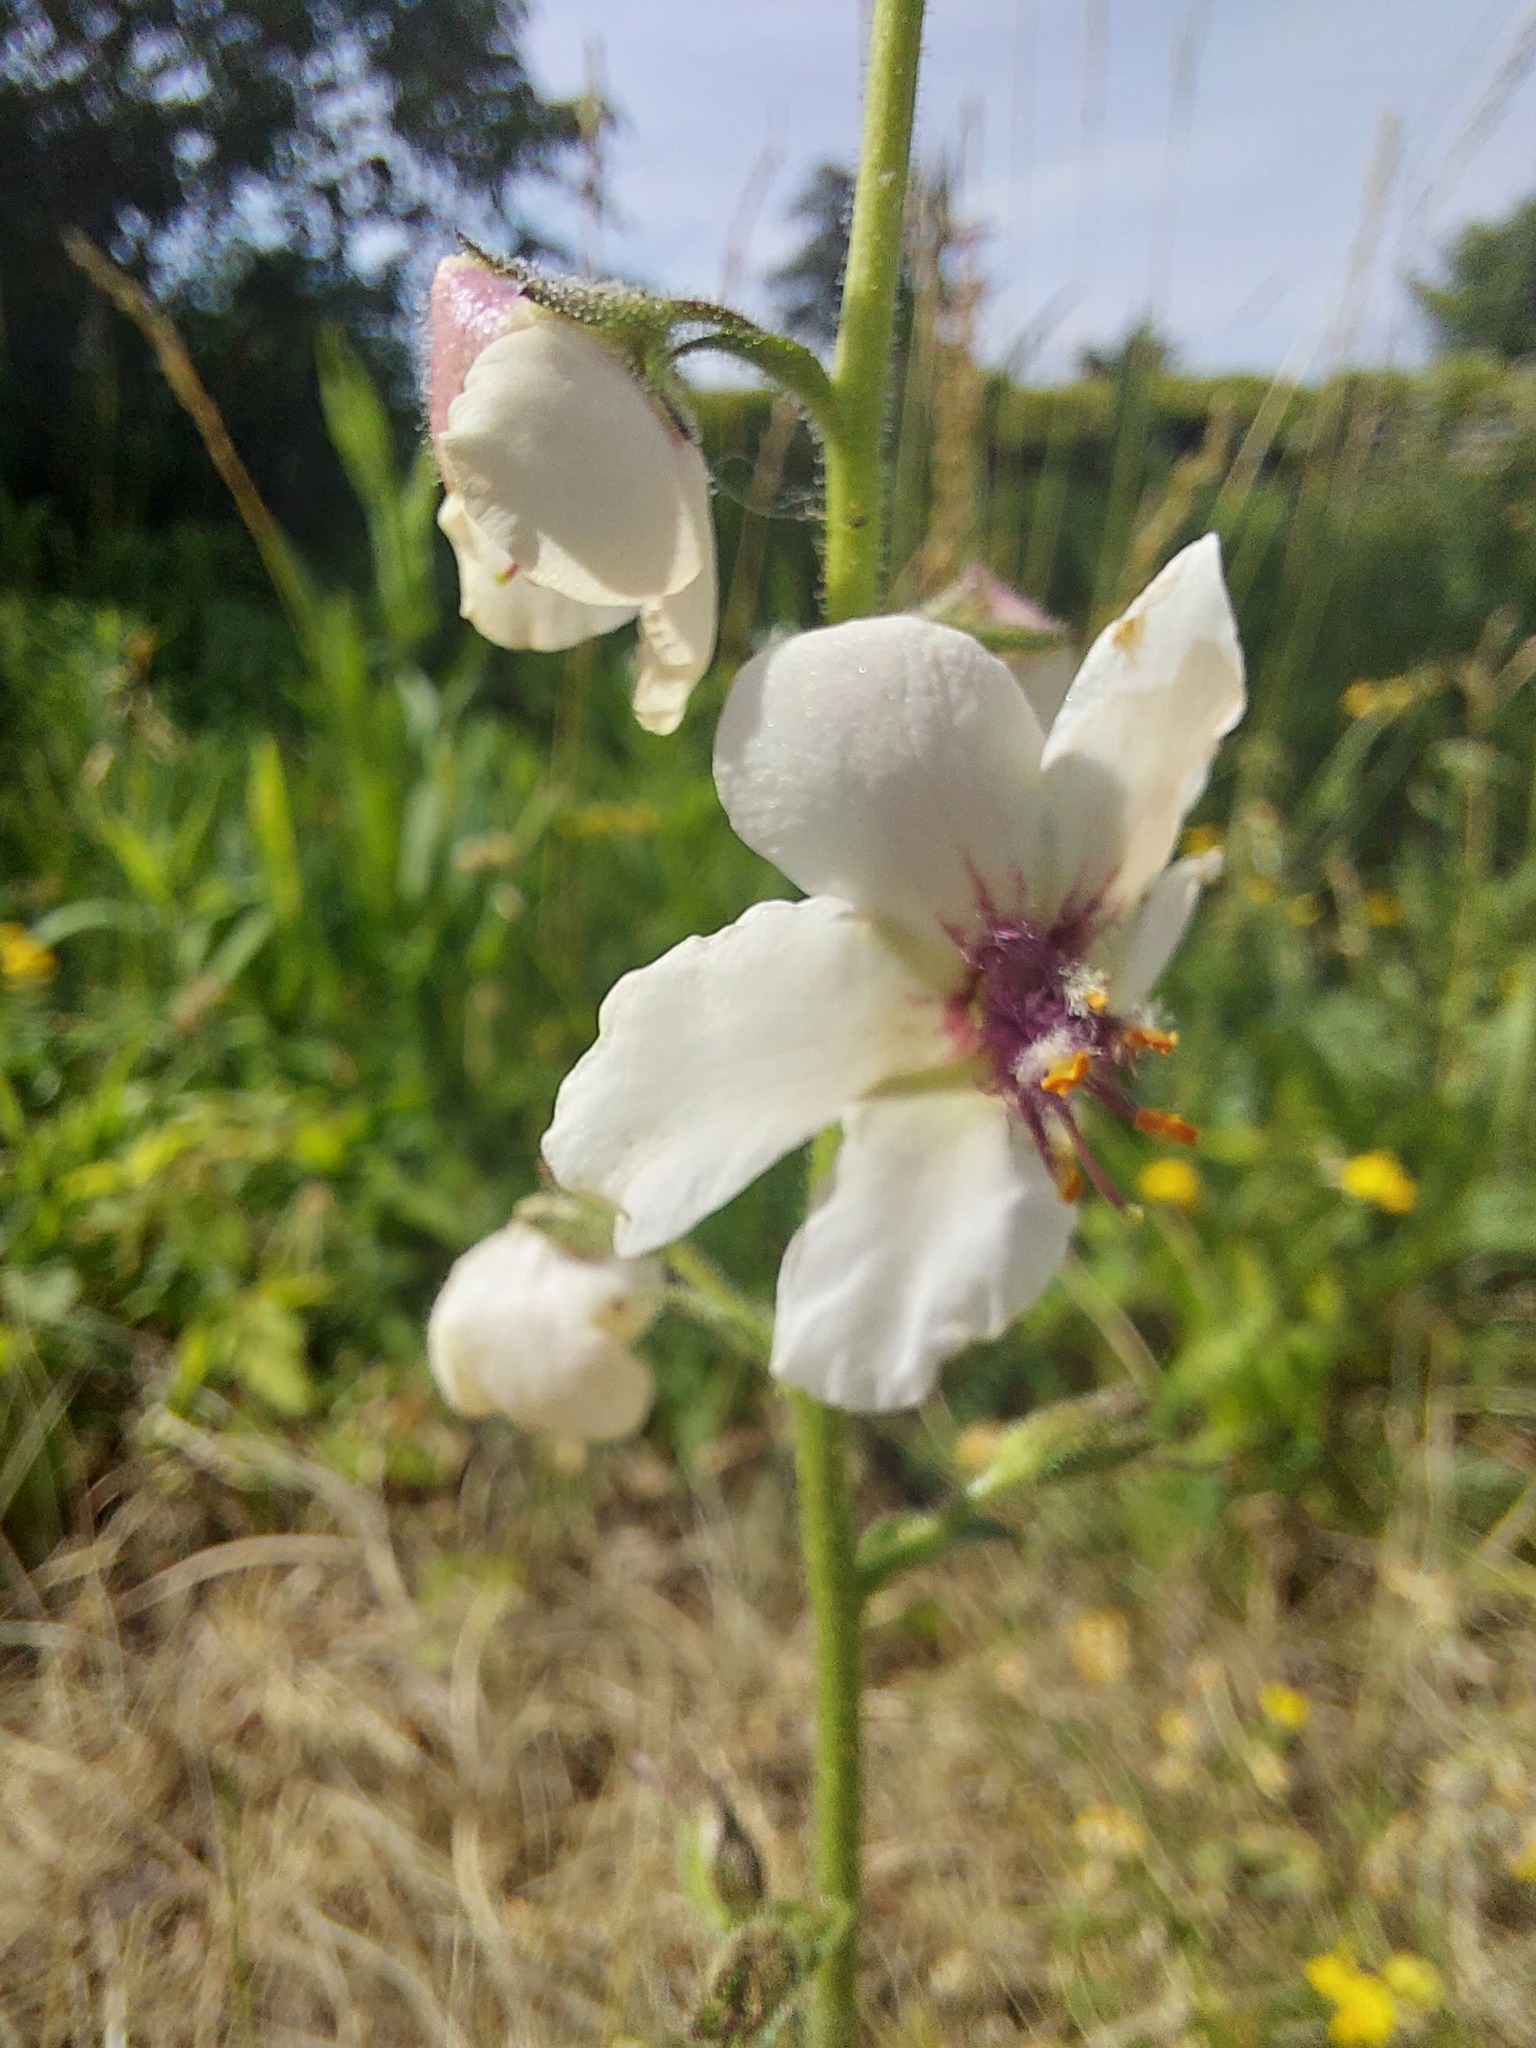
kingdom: Plantae
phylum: Tracheophyta
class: Magnoliopsida
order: Lamiales
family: Scrophulariaceae
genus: Verbascum
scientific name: Verbascum blattaria
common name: Moth mullein
